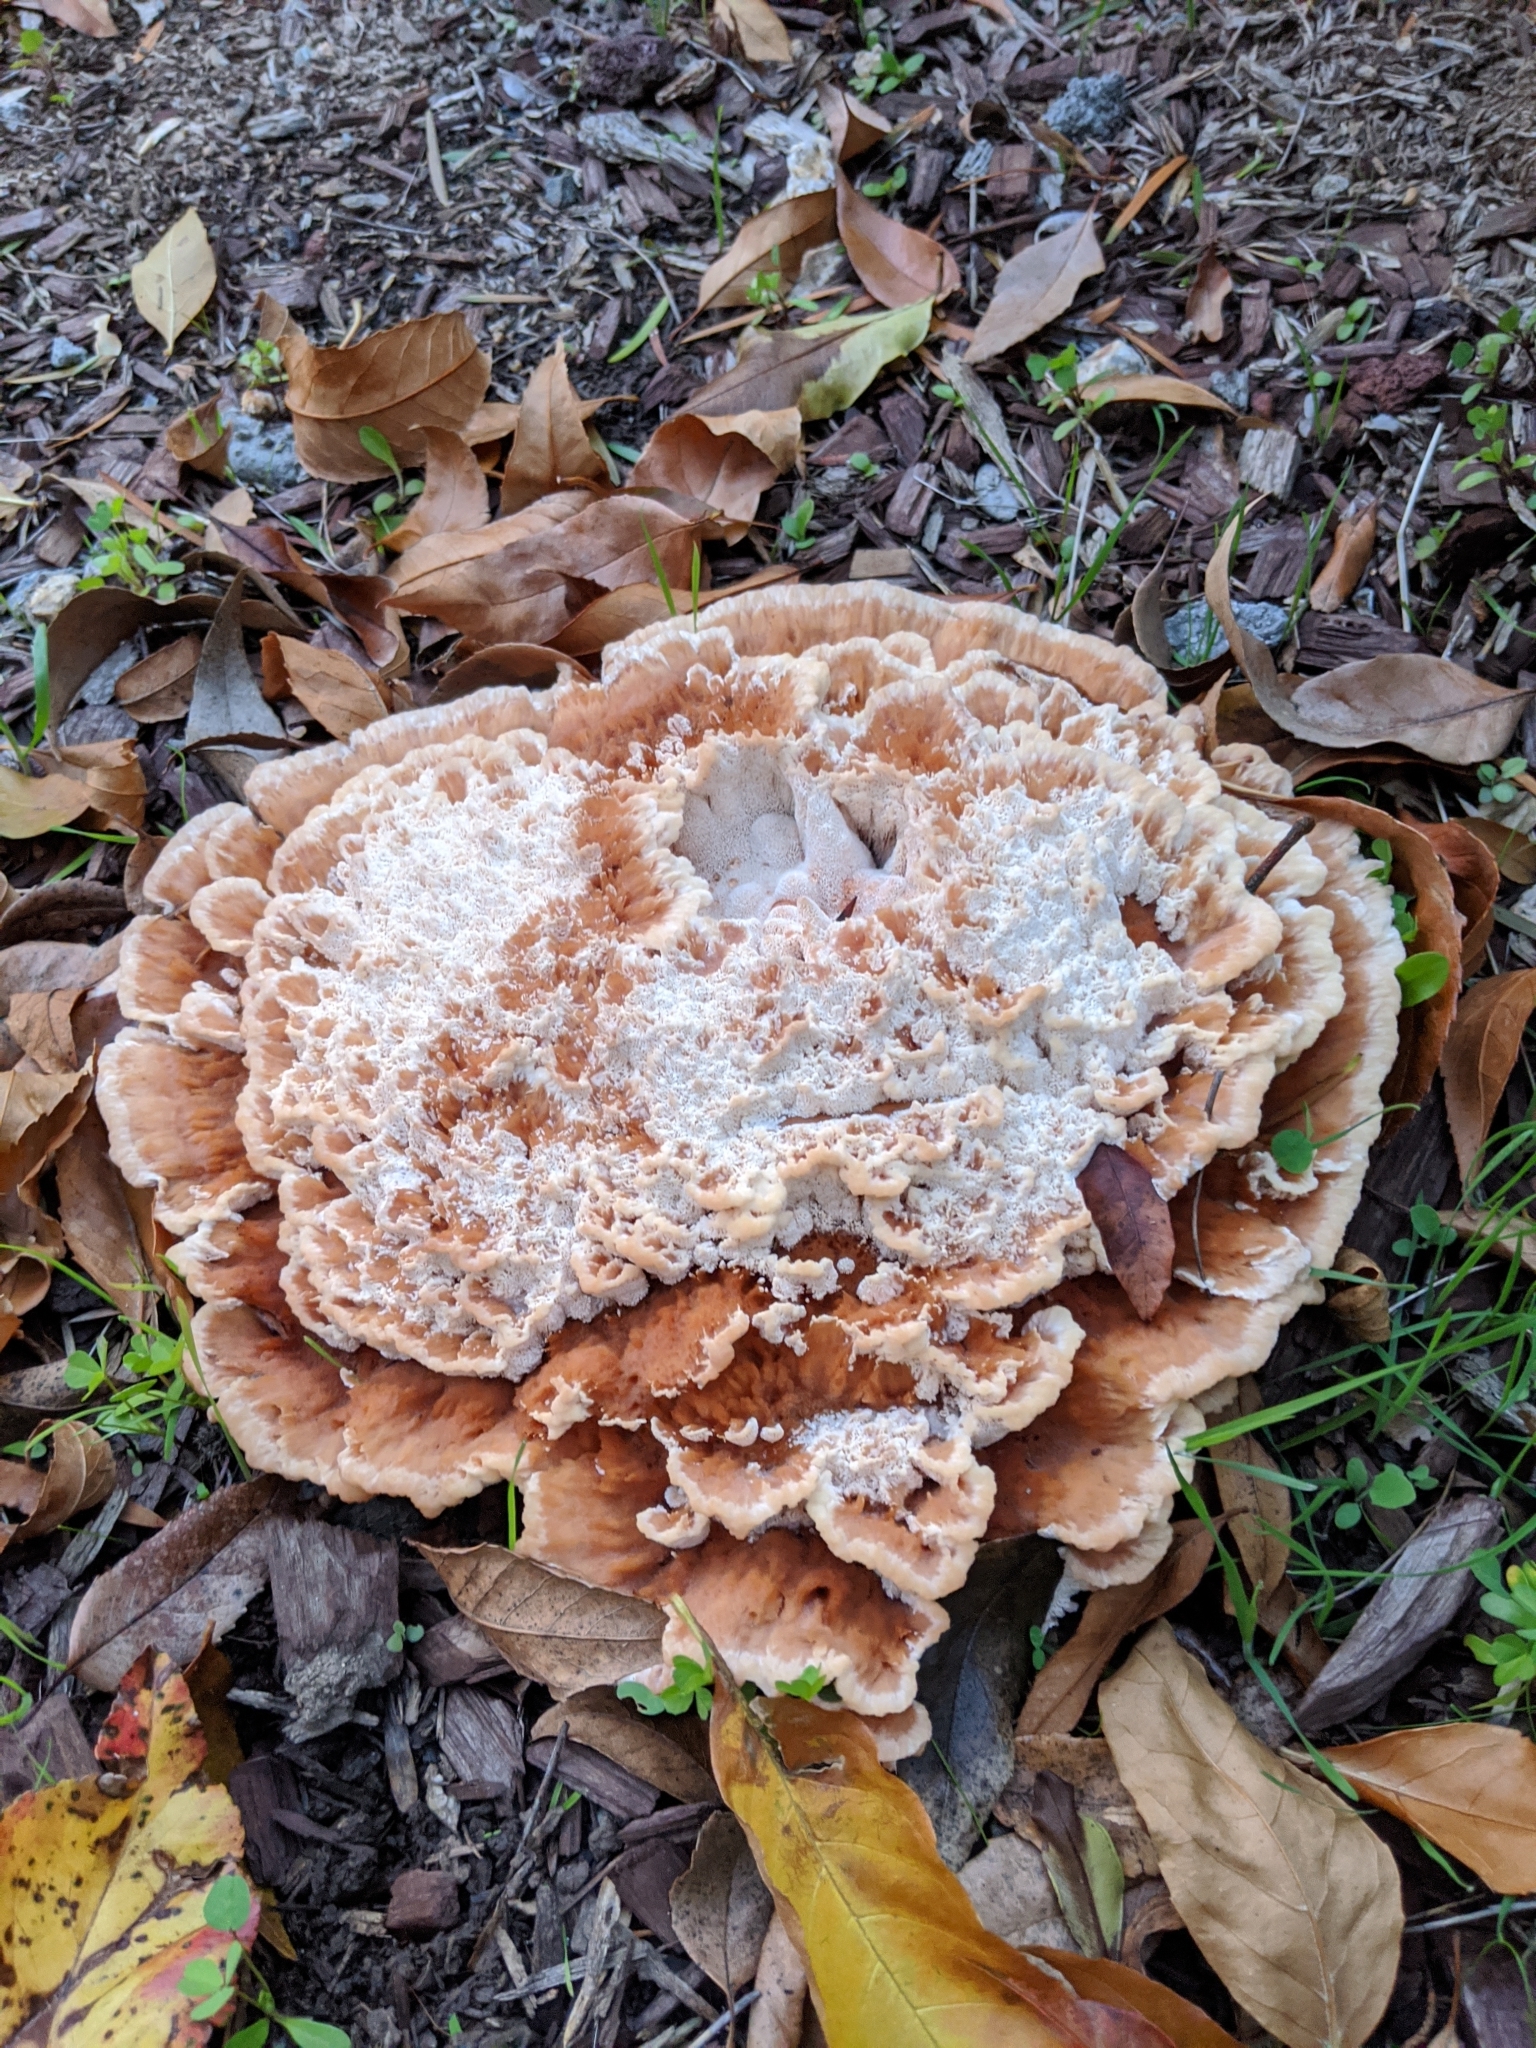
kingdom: Fungi
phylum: Basidiomycota
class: Agaricomycetes
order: Polyporales
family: Podoscyphaceae
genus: Abortiporus
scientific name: Abortiporus biennis
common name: Blushing rosette
